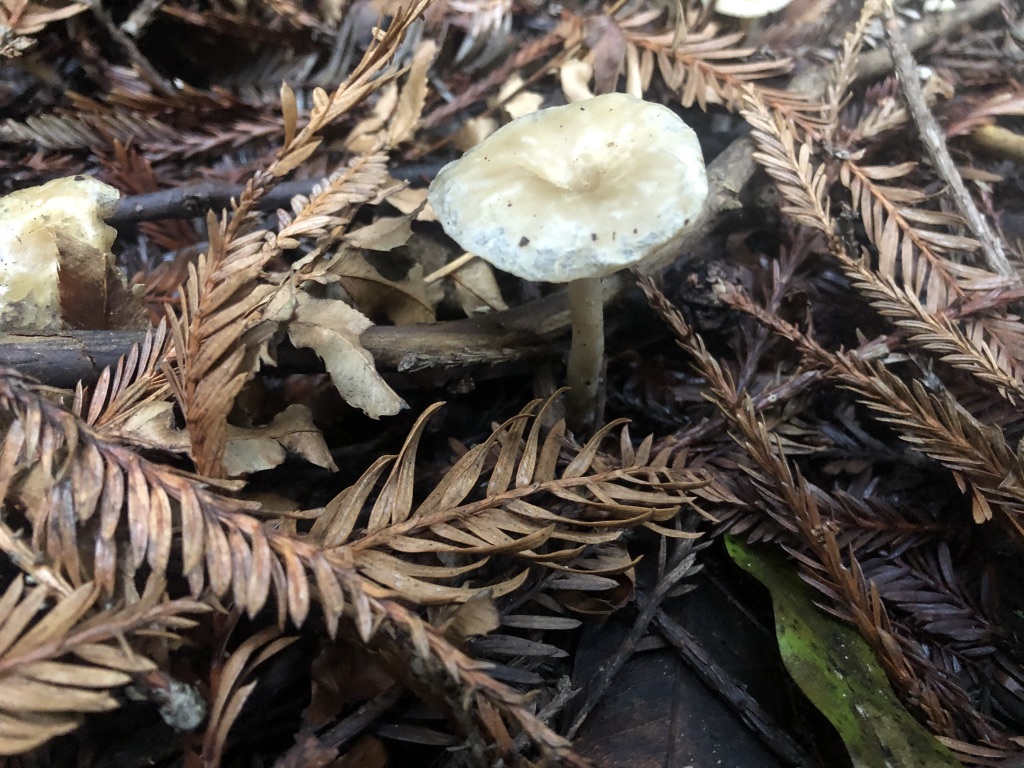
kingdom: Fungi
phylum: Basidiomycota
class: Agaricomycetes
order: Agaricales
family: Tricholomataceae
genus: Clitocybe
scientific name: Clitocybe fragrans
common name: Fragrant funnel
